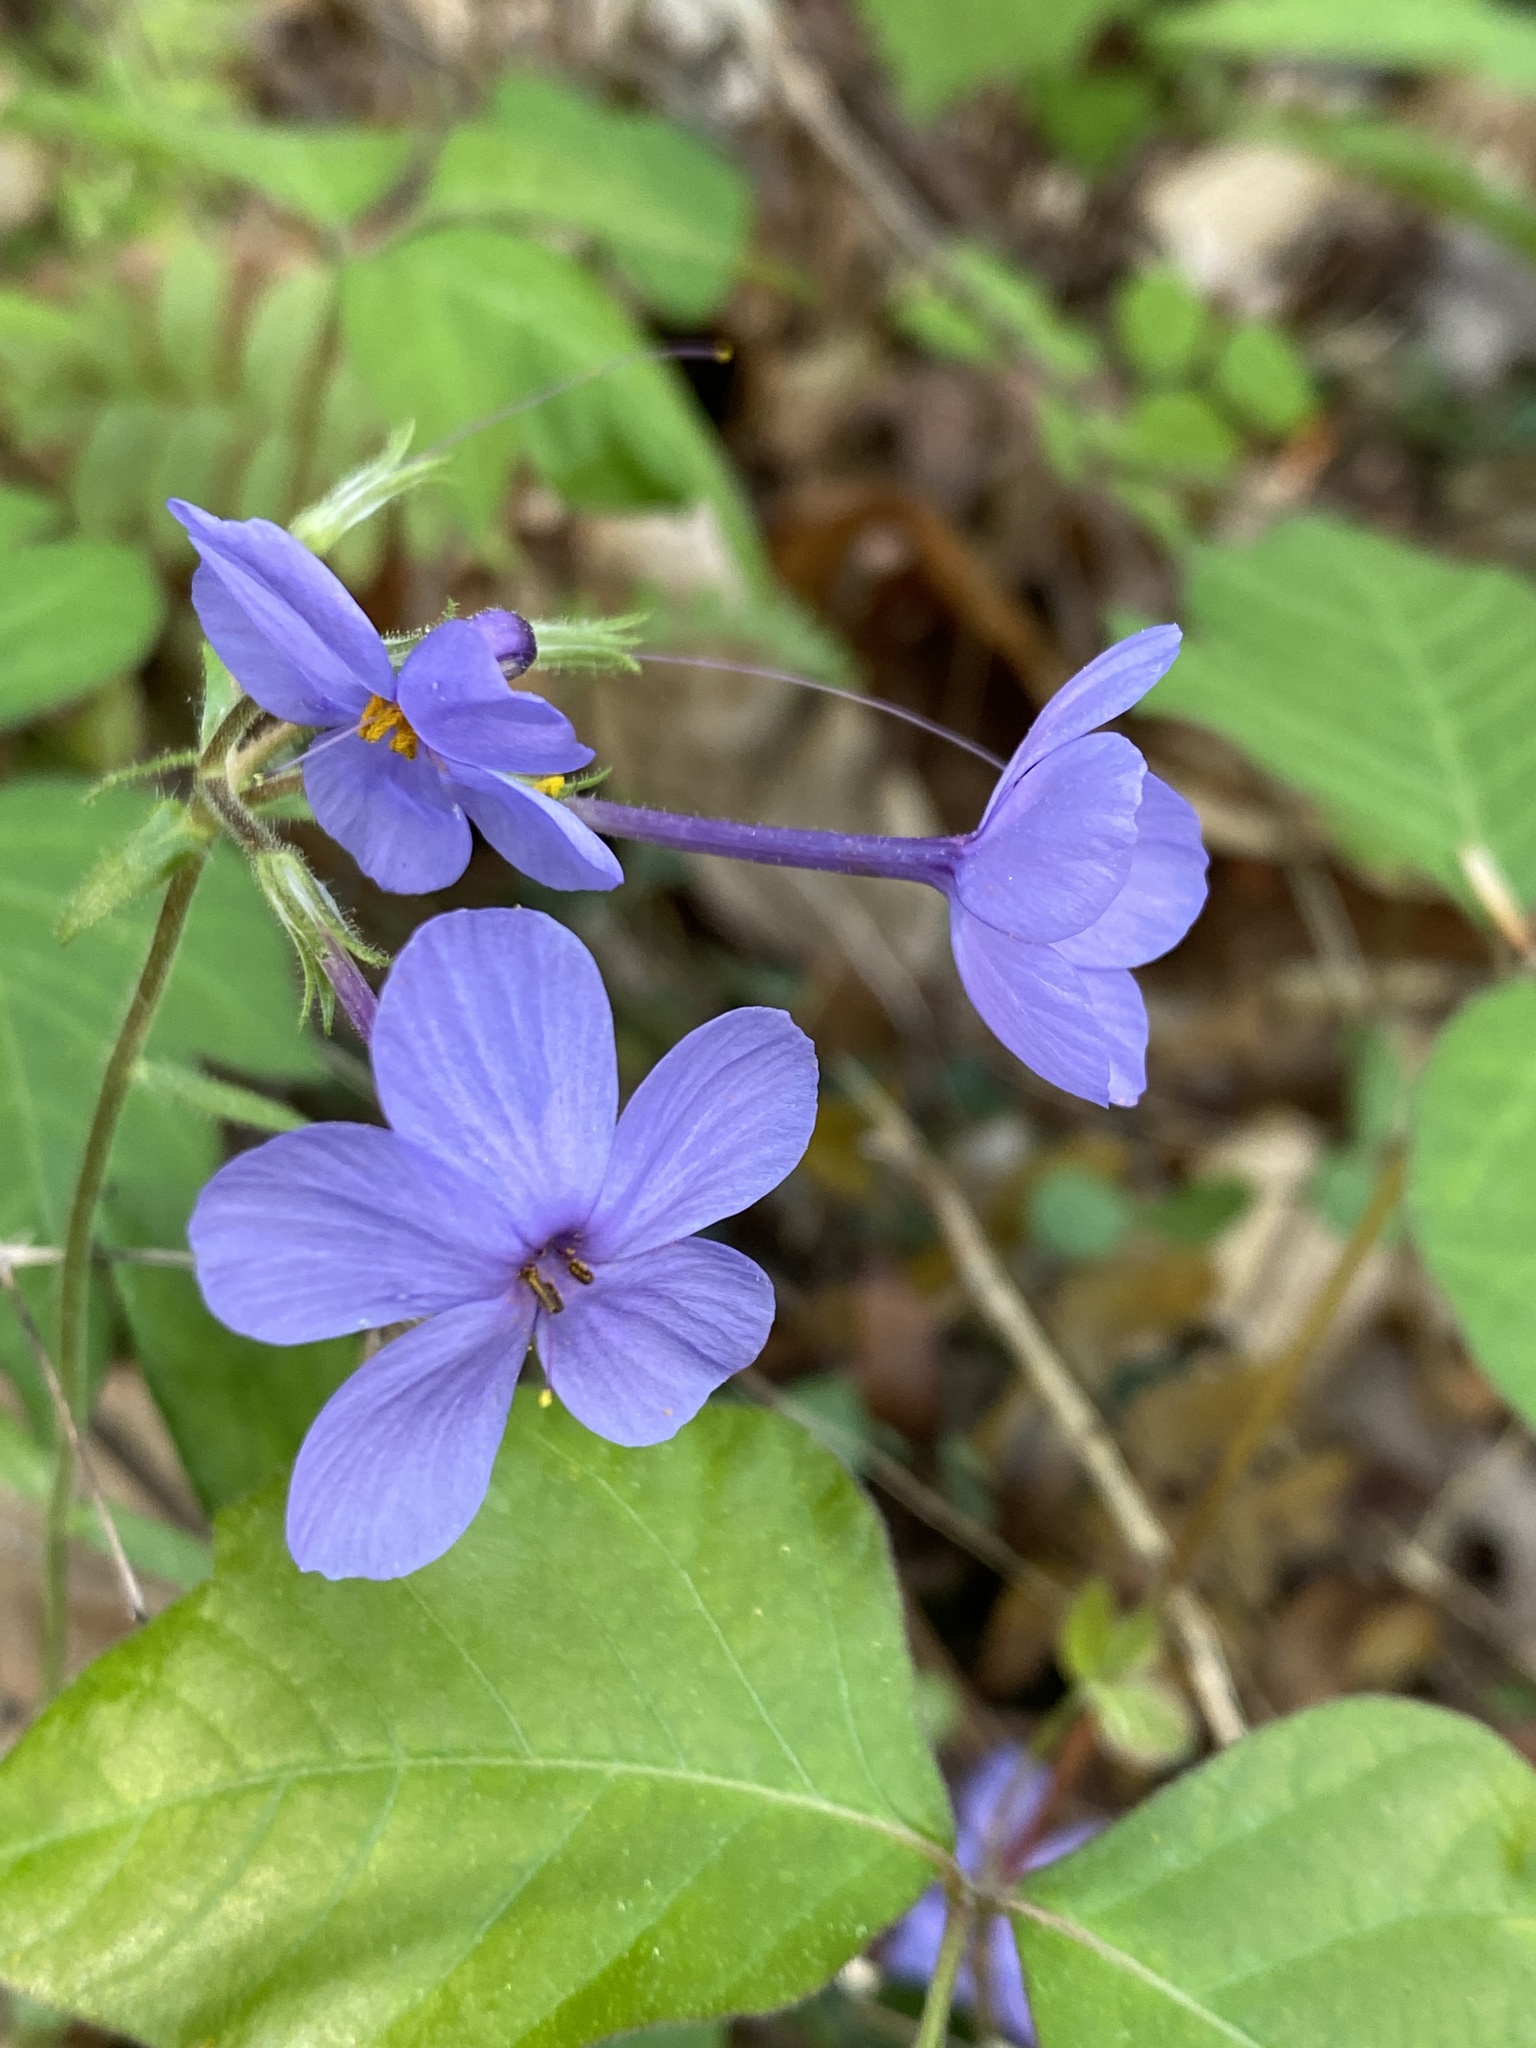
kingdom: Plantae
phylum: Tracheophyta
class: Magnoliopsida
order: Ericales
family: Polemoniaceae
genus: Phlox
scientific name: Phlox stolonifera
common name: Creeping phlox
